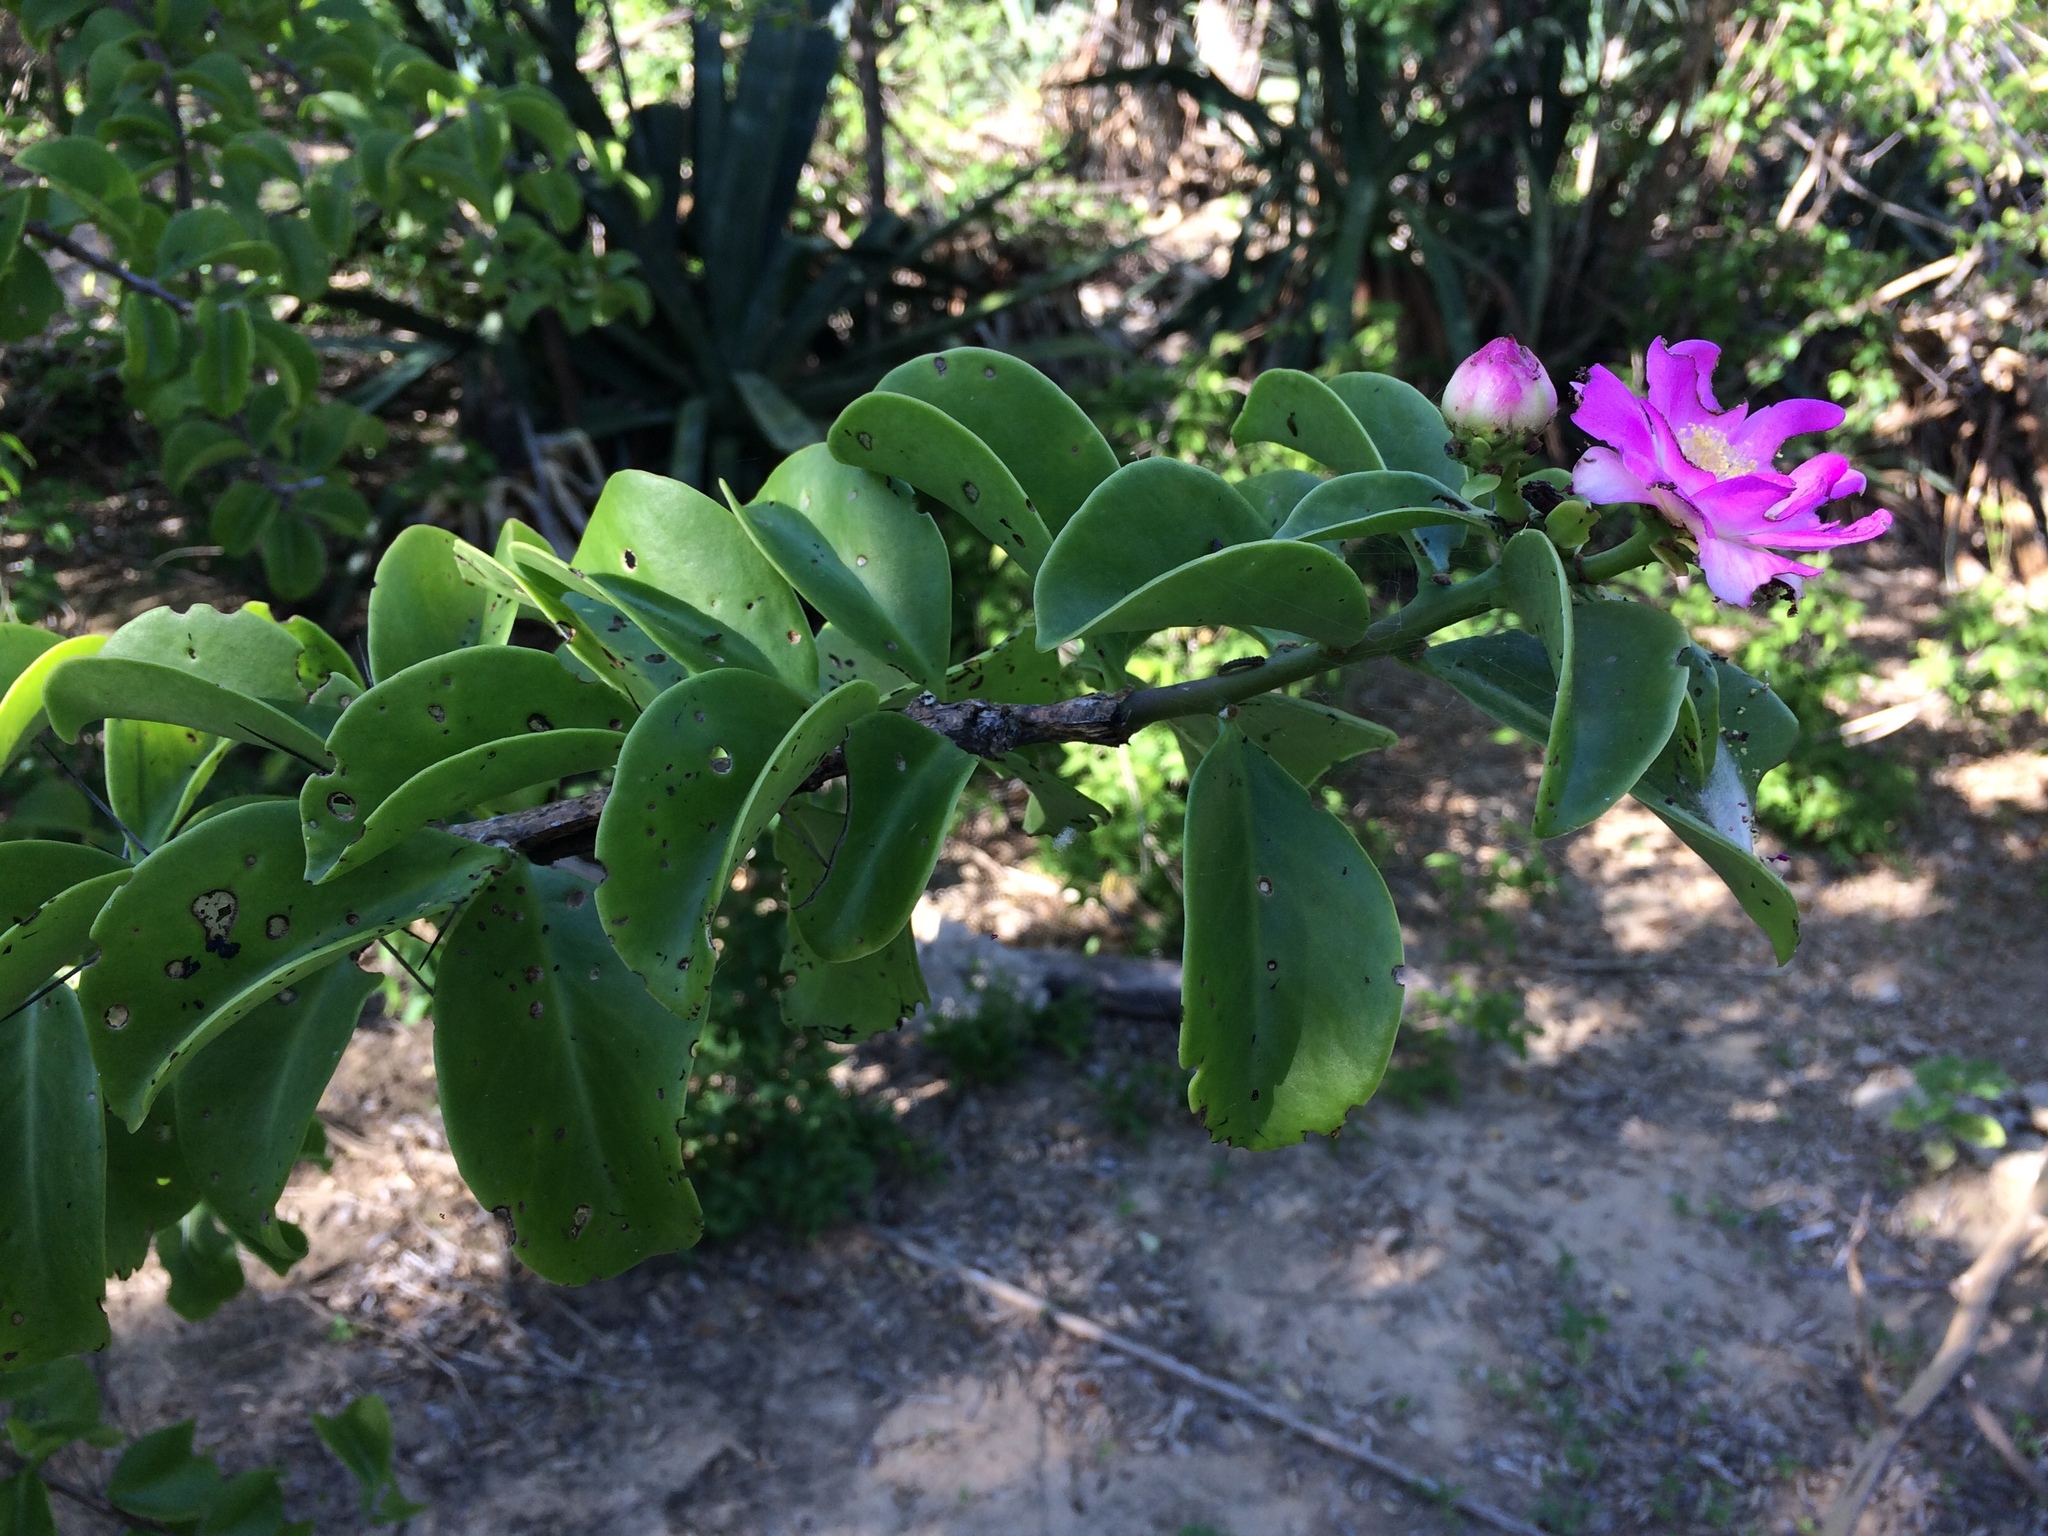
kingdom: Plantae
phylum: Tracheophyta
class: Magnoliopsida
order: Caryophyllales
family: Cactaceae
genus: Pereskia
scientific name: Pereskia bahiensis
